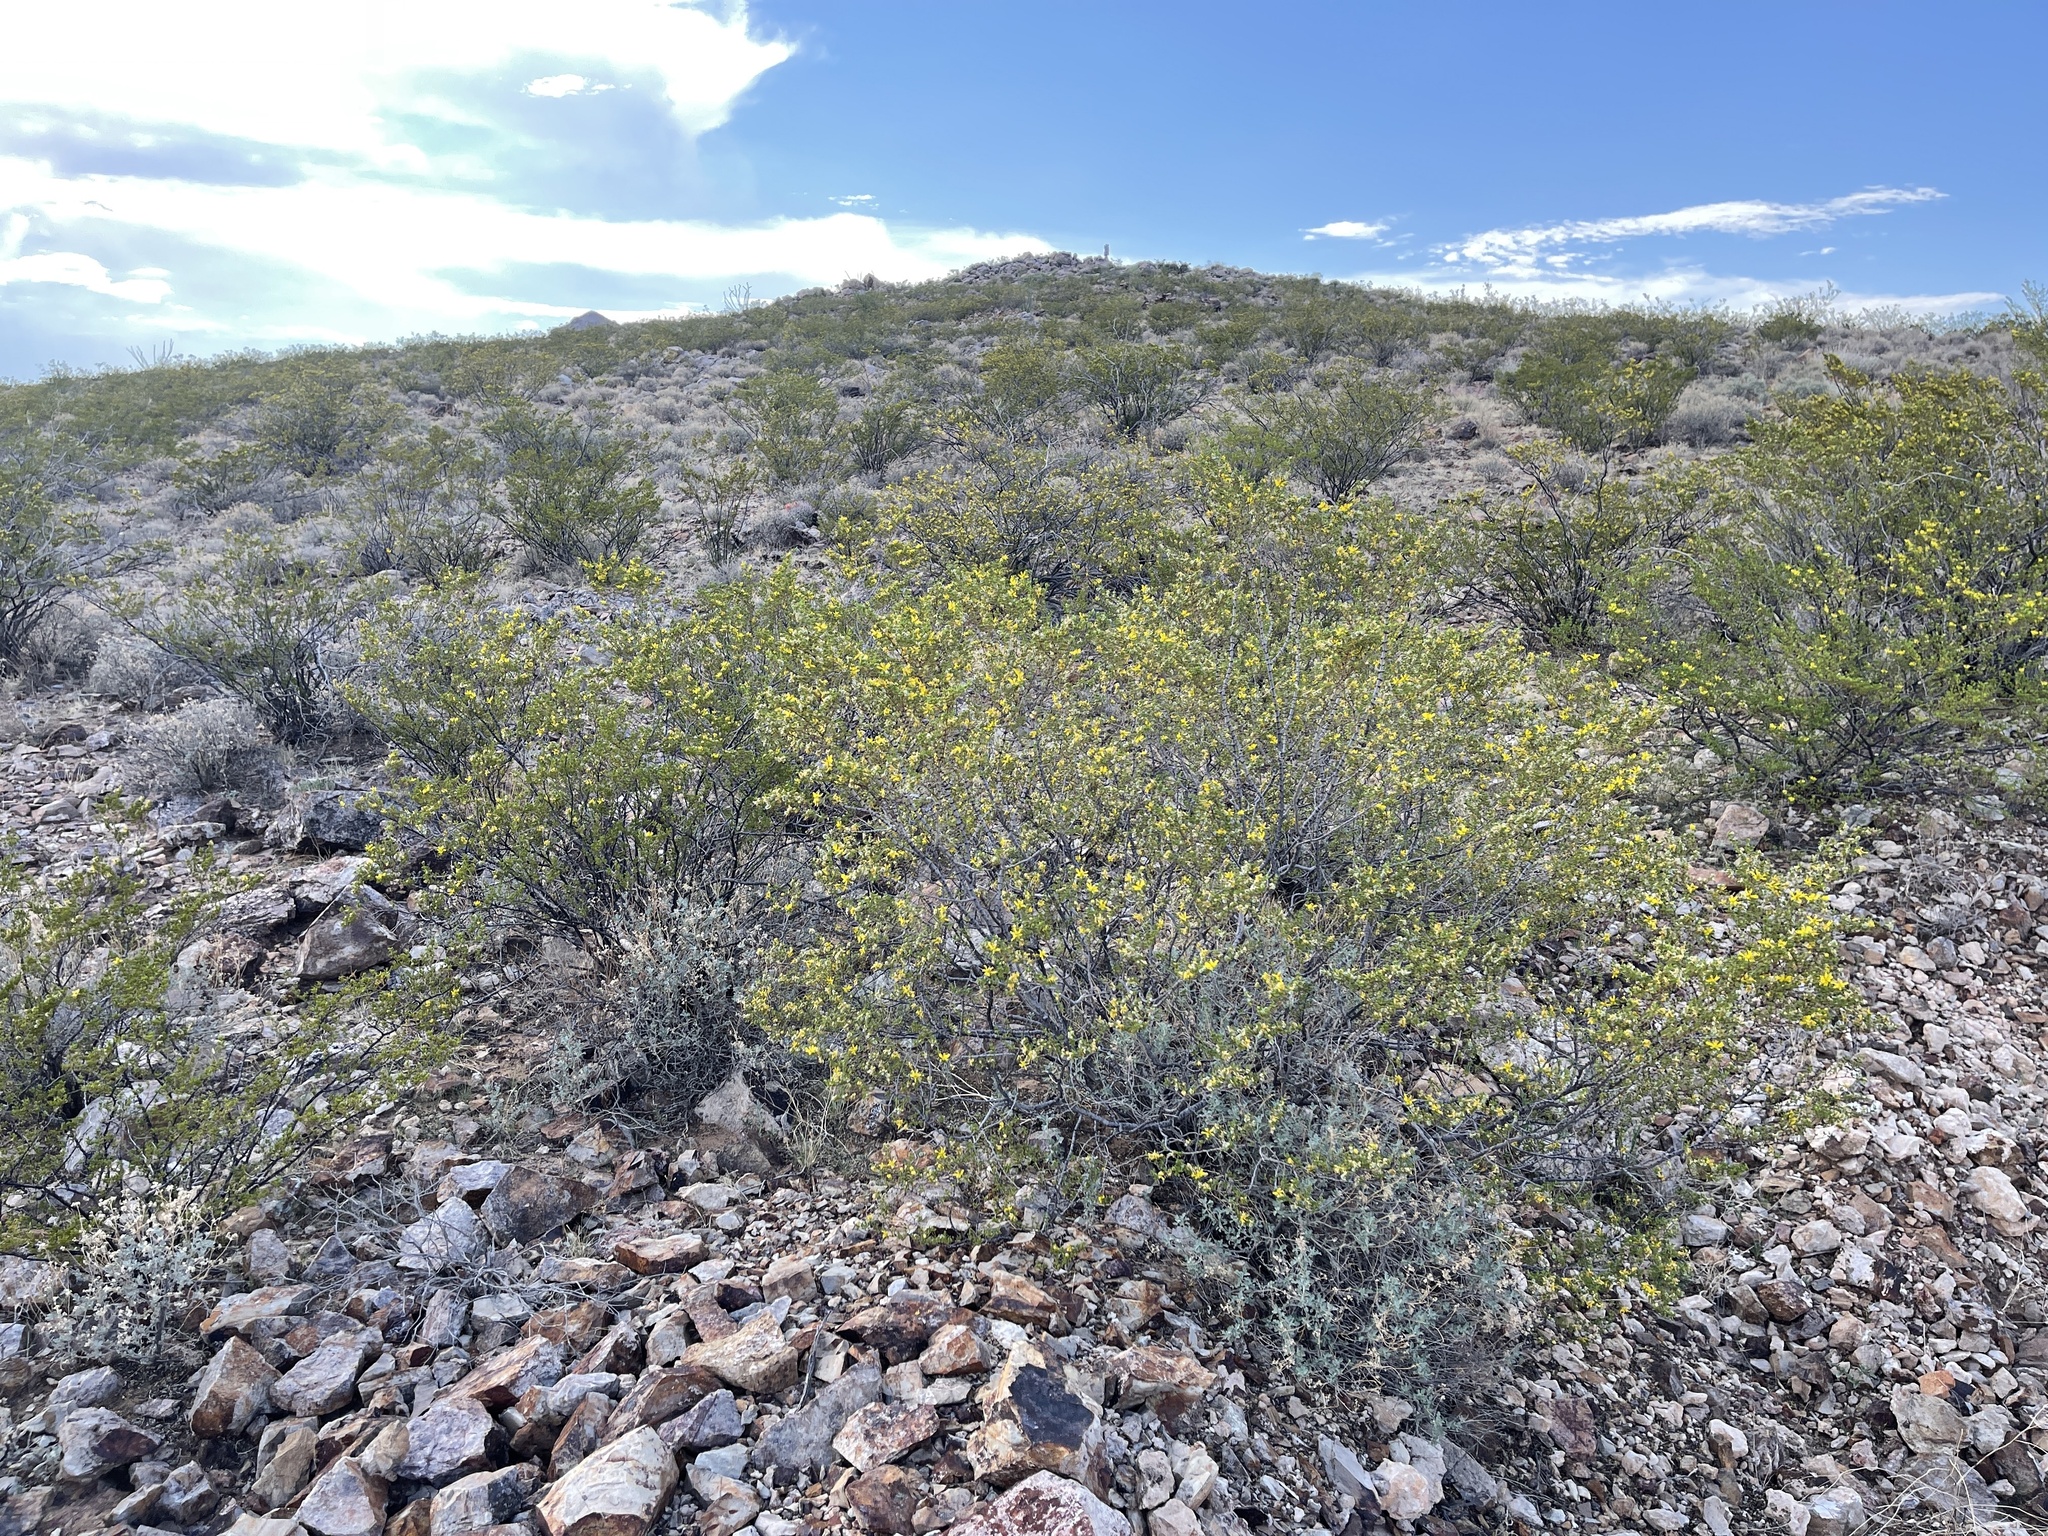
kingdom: Plantae
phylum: Tracheophyta
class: Magnoliopsida
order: Zygophyllales
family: Zygophyllaceae
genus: Larrea
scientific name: Larrea tridentata
